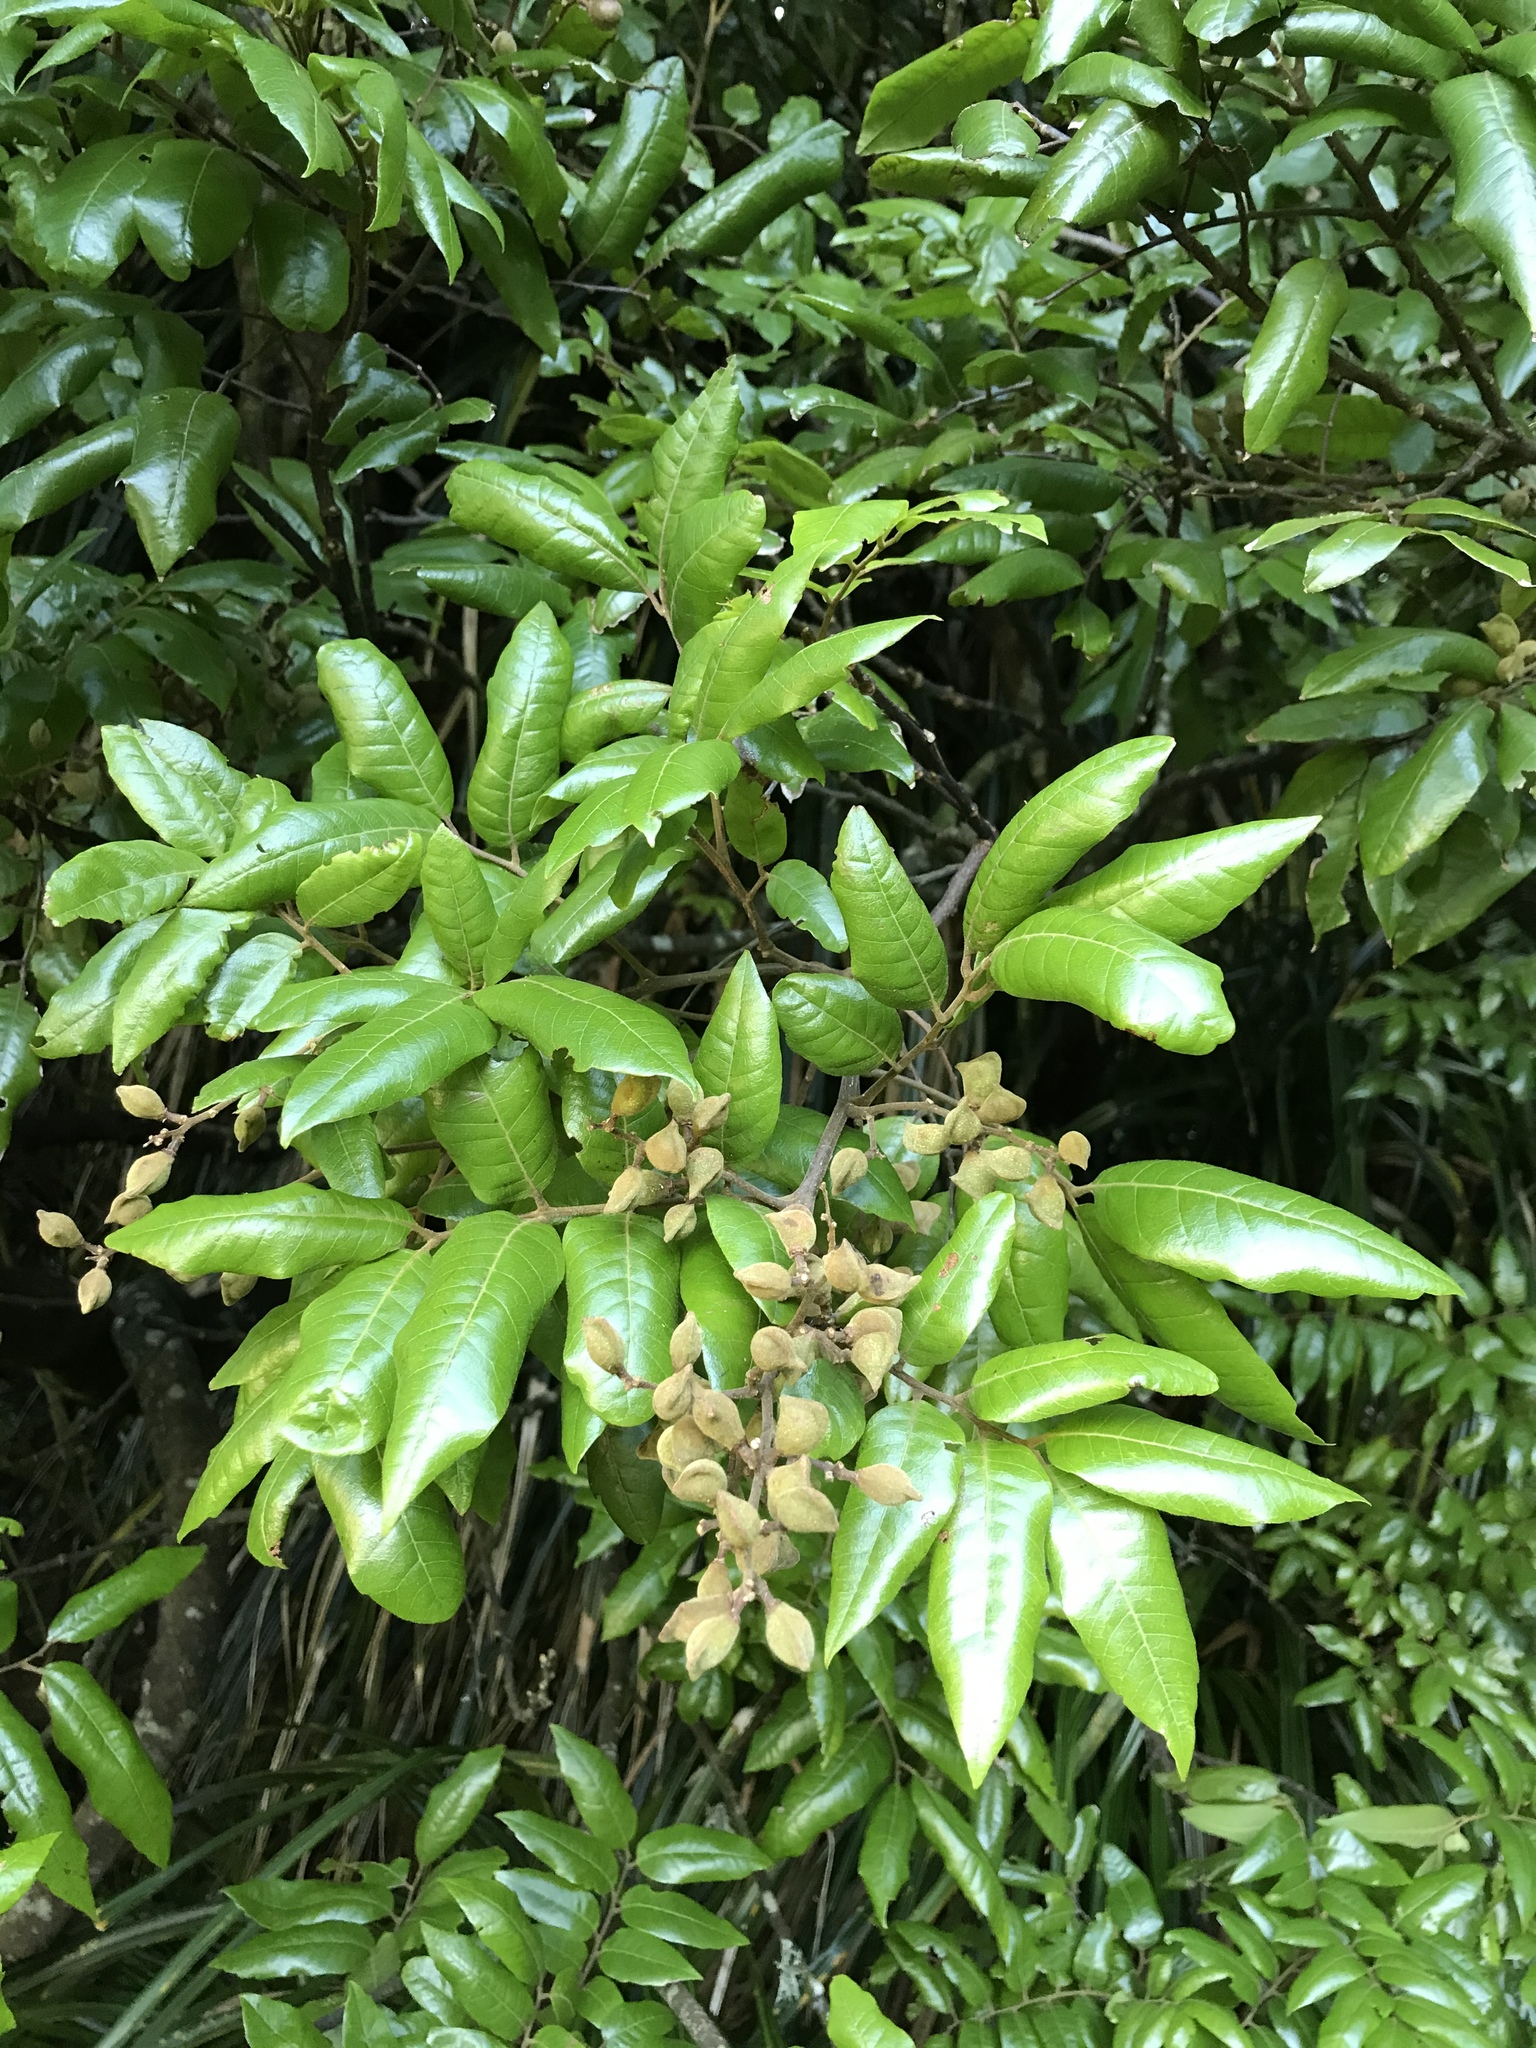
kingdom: Plantae
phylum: Tracheophyta
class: Magnoliopsida
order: Sapindales
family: Sapindaceae
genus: Alectryon
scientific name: Alectryon excelsus
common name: Three kings titoki
